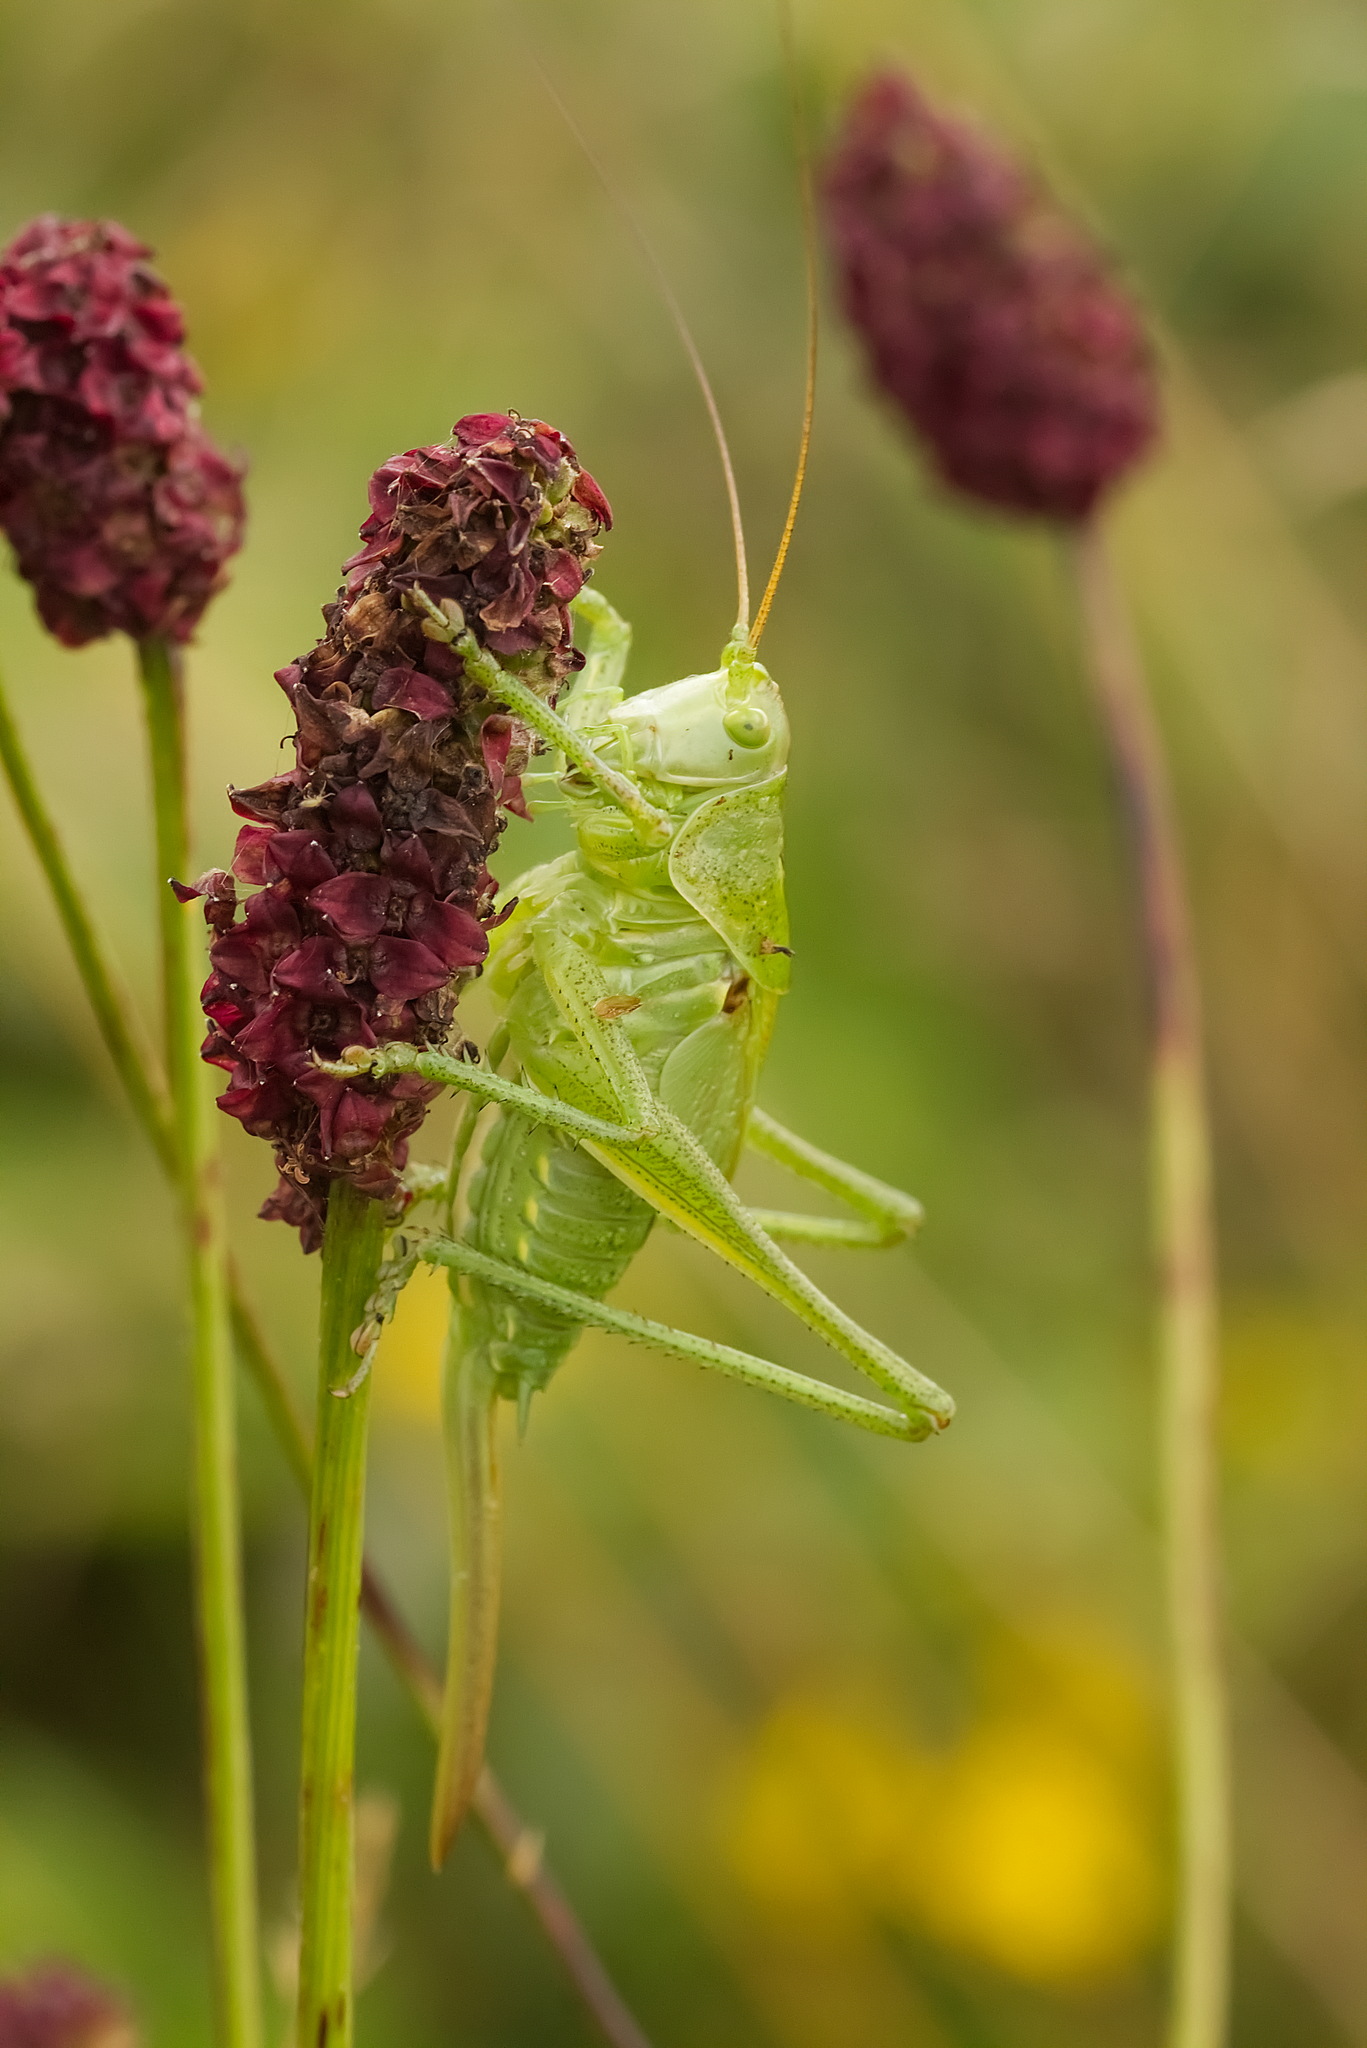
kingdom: Animalia
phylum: Arthropoda
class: Insecta
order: Orthoptera
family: Tettigoniidae
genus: Tettigonia
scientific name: Tettigonia viridissima
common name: Great green bush-cricket
